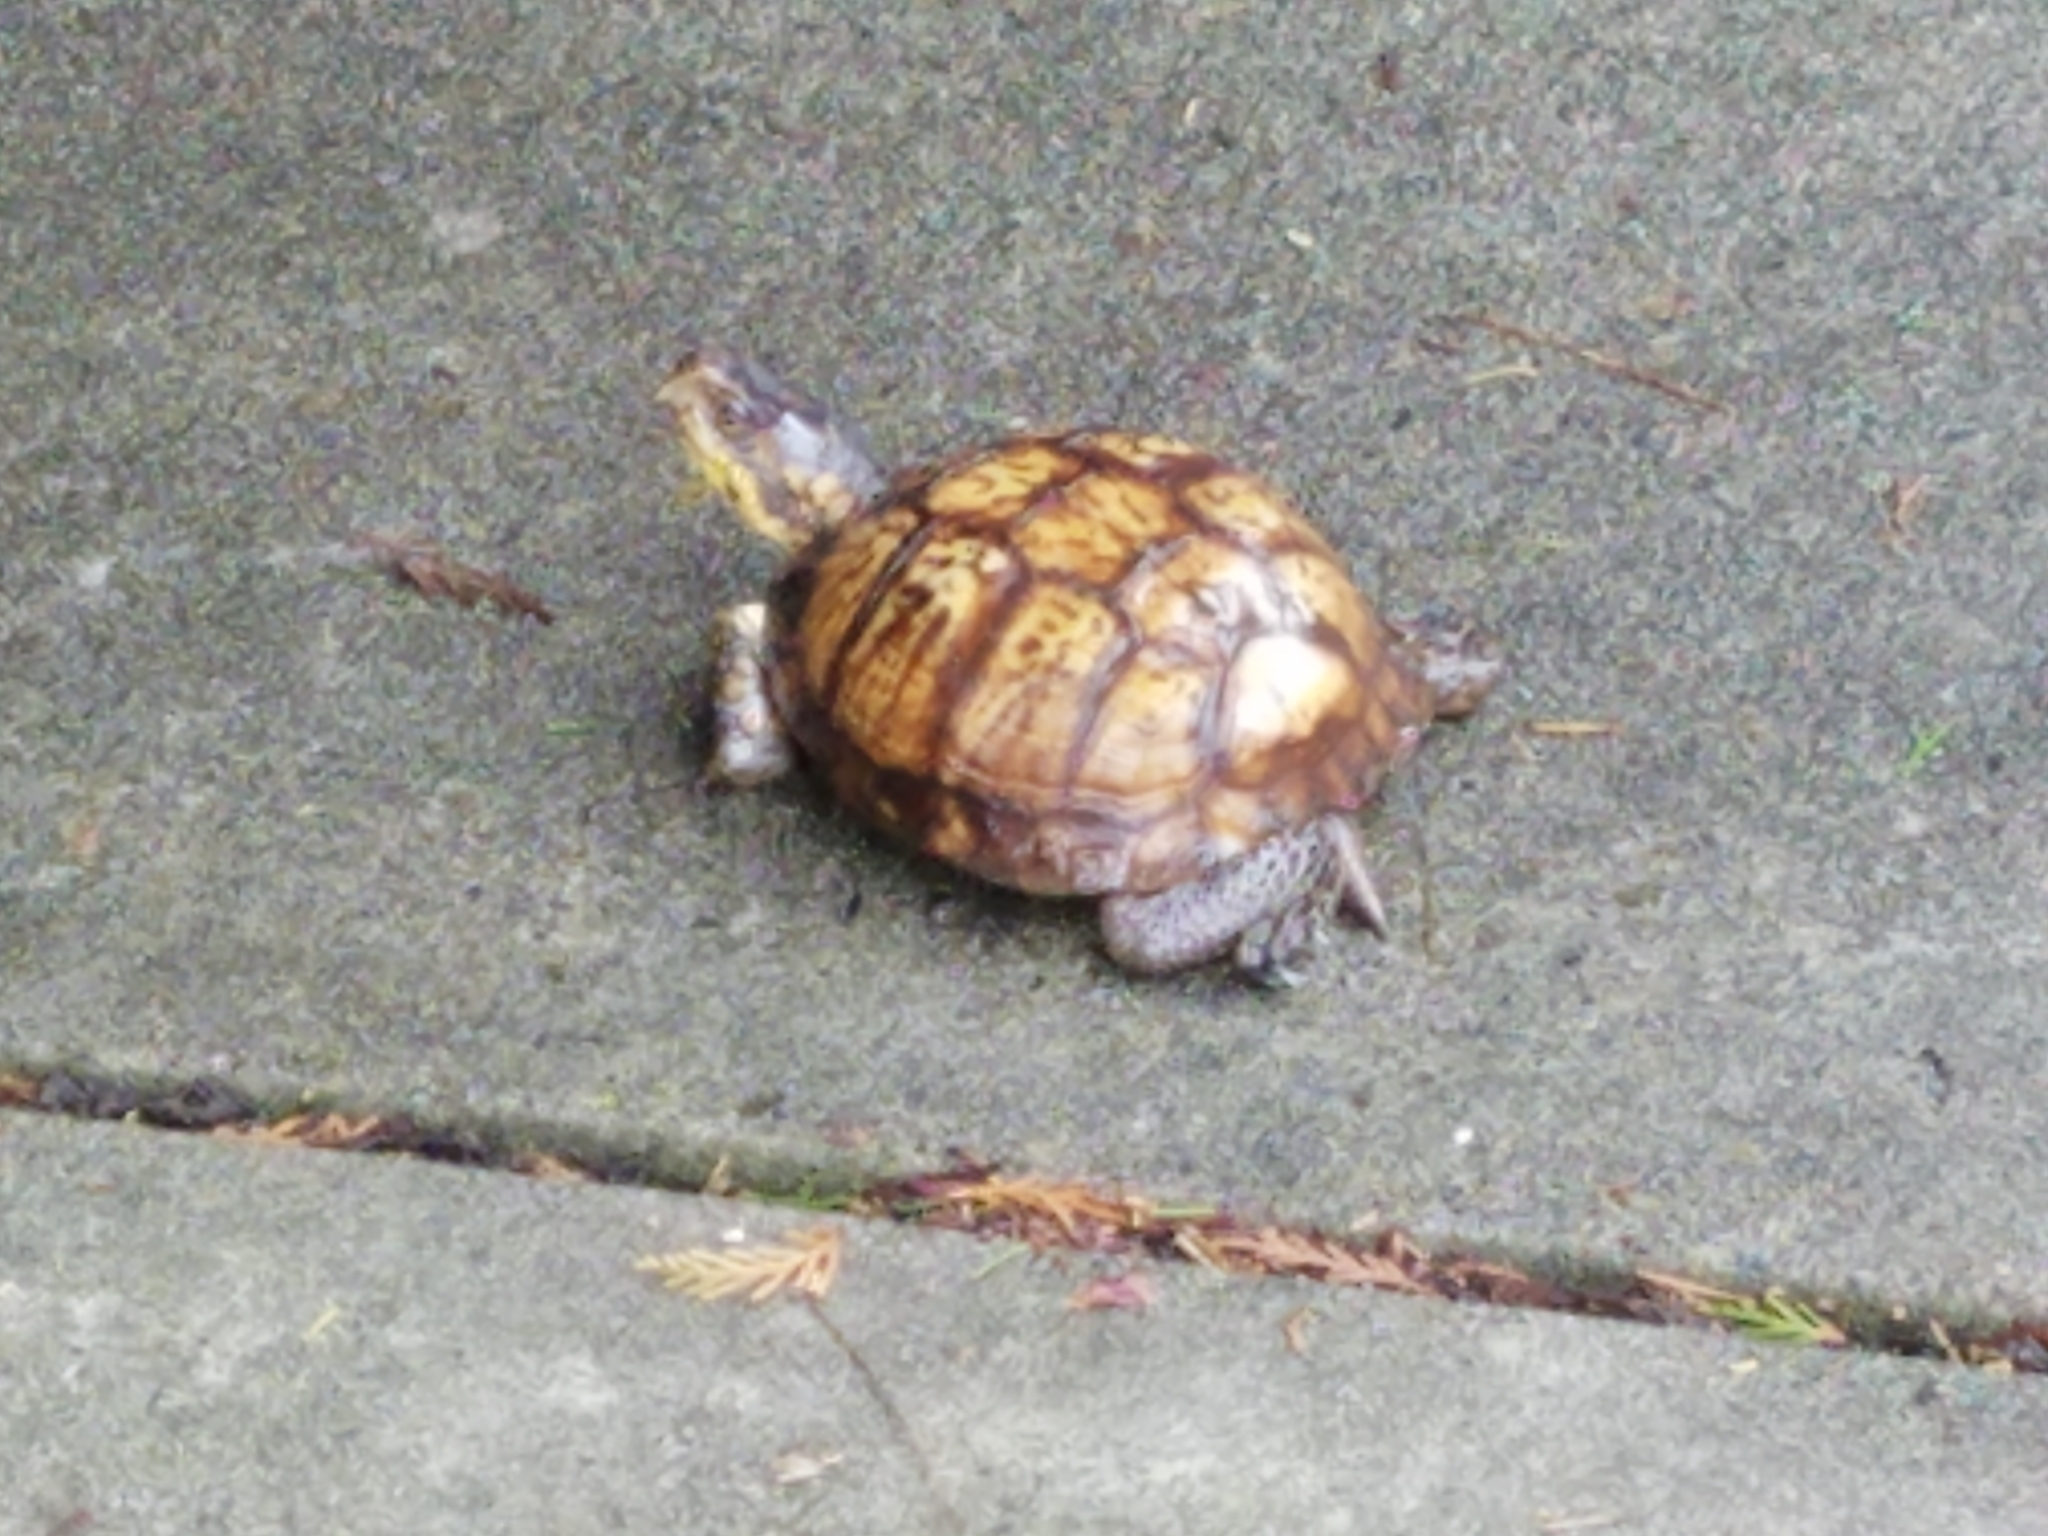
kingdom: Animalia
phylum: Chordata
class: Testudines
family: Emydidae
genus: Terrapene
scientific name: Terrapene carolina
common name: Common box turtle
